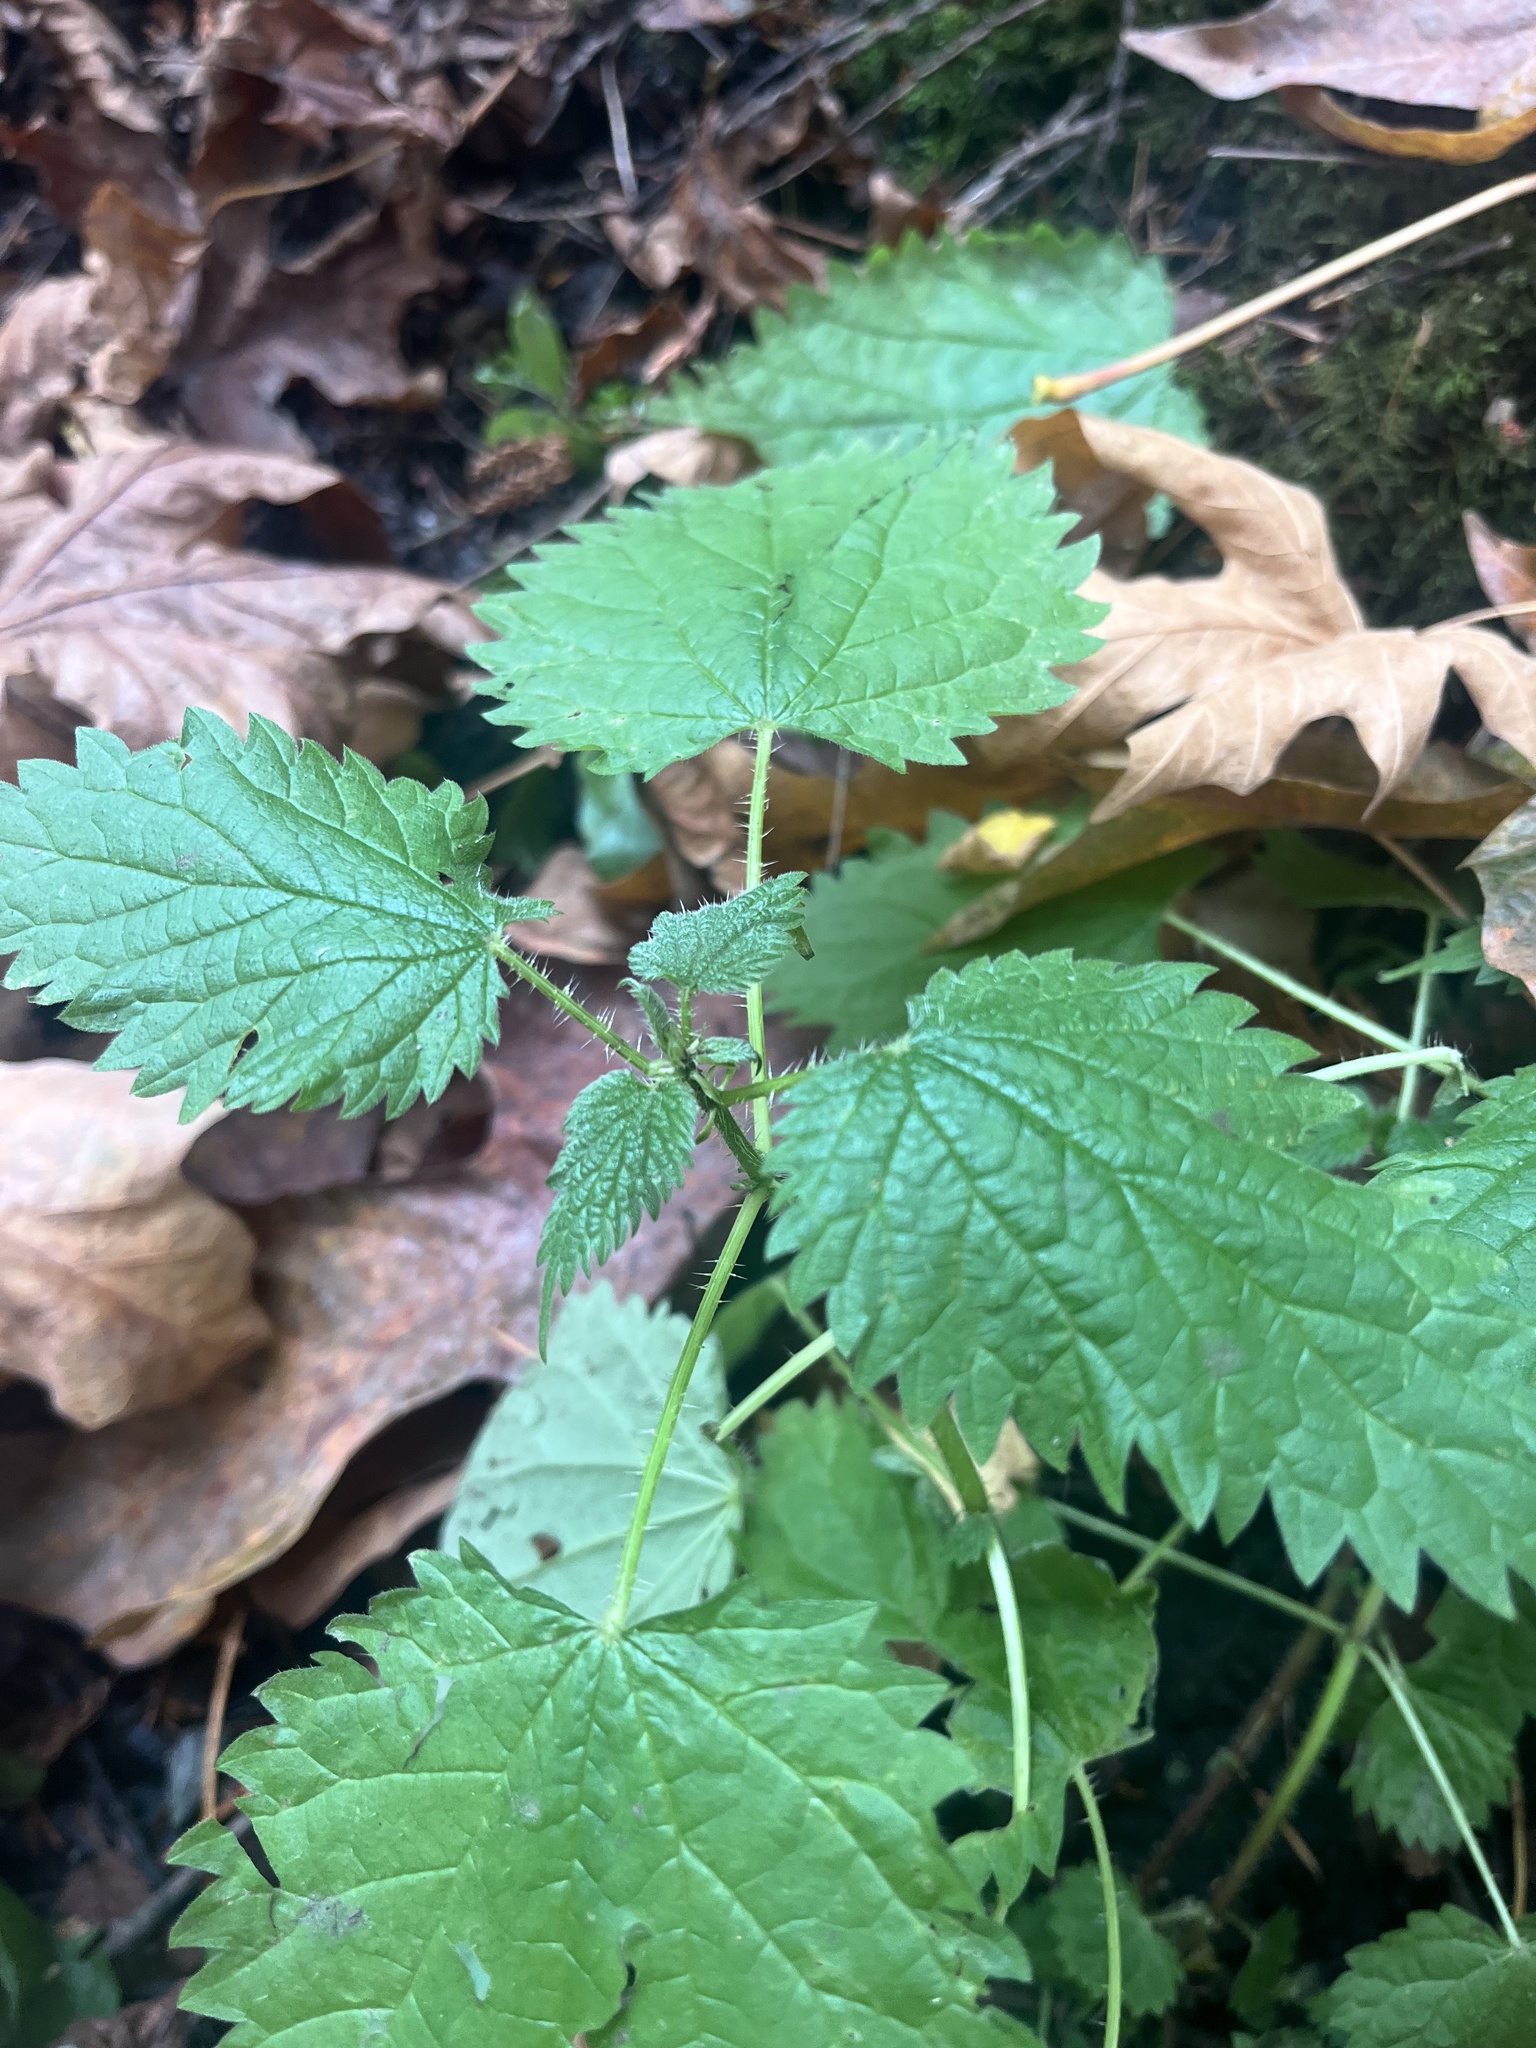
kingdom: Plantae
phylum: Tracheophyta
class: Magnoliopsida
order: Rosales
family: Urticaceae
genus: Urtica
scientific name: Urtica dioica
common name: Common nettle
